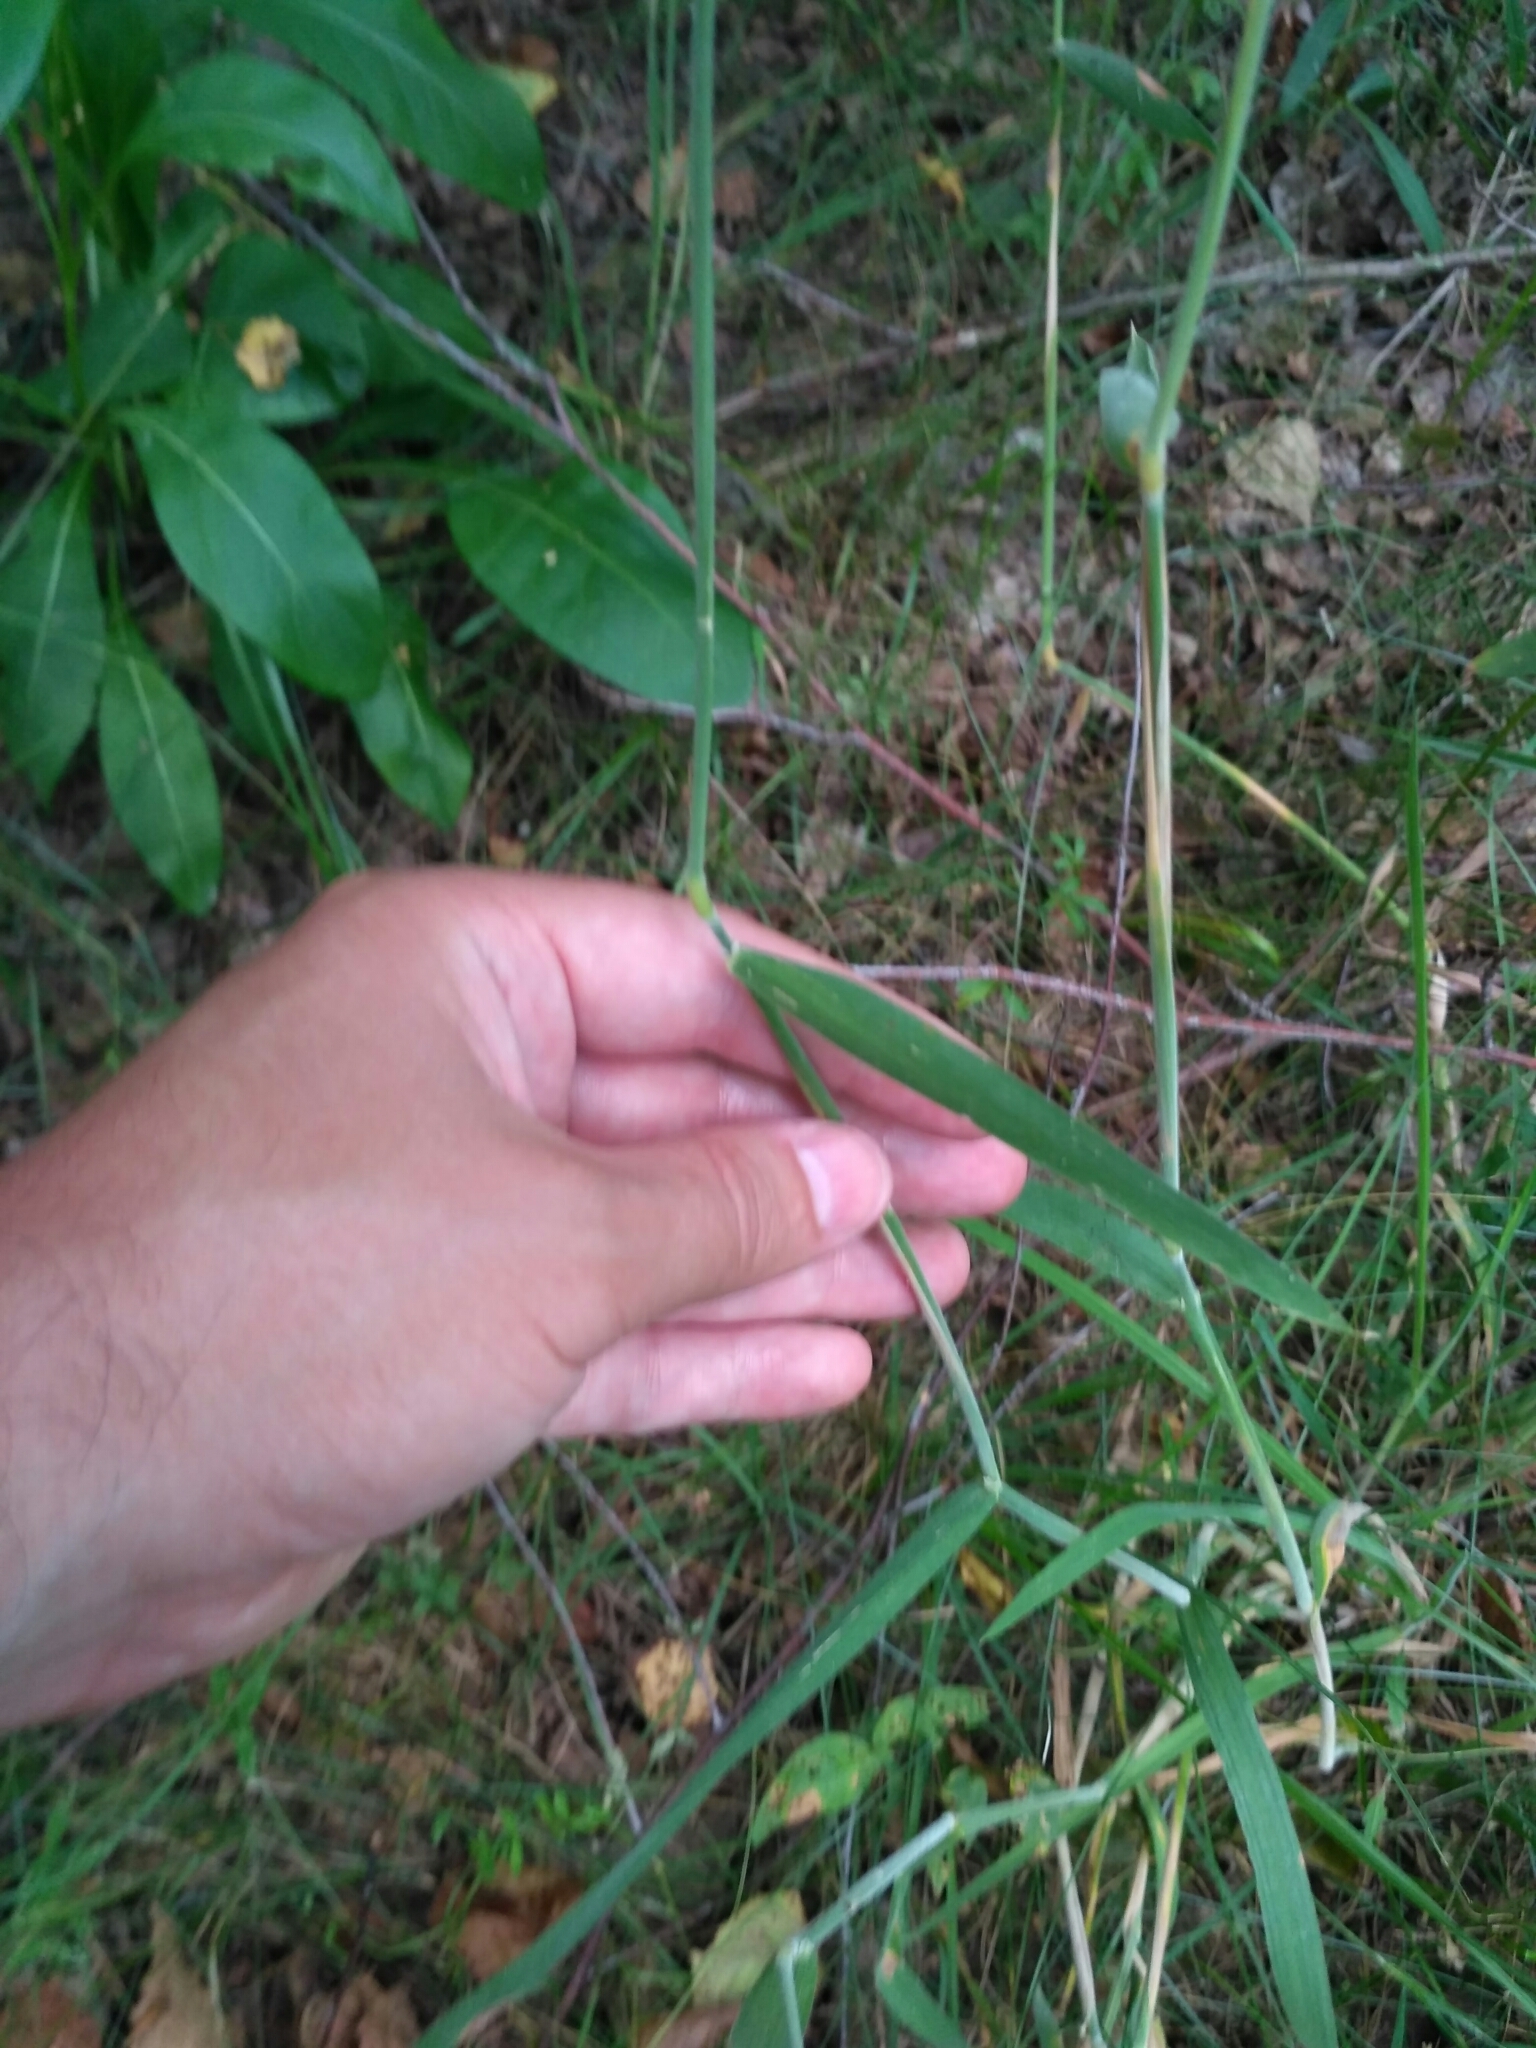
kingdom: Plantae
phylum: Tracheophyta
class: Liliopsida
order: Poales
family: Poaceae
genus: Holcus
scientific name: Holcus lanatus
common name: Yorkshire-fog
